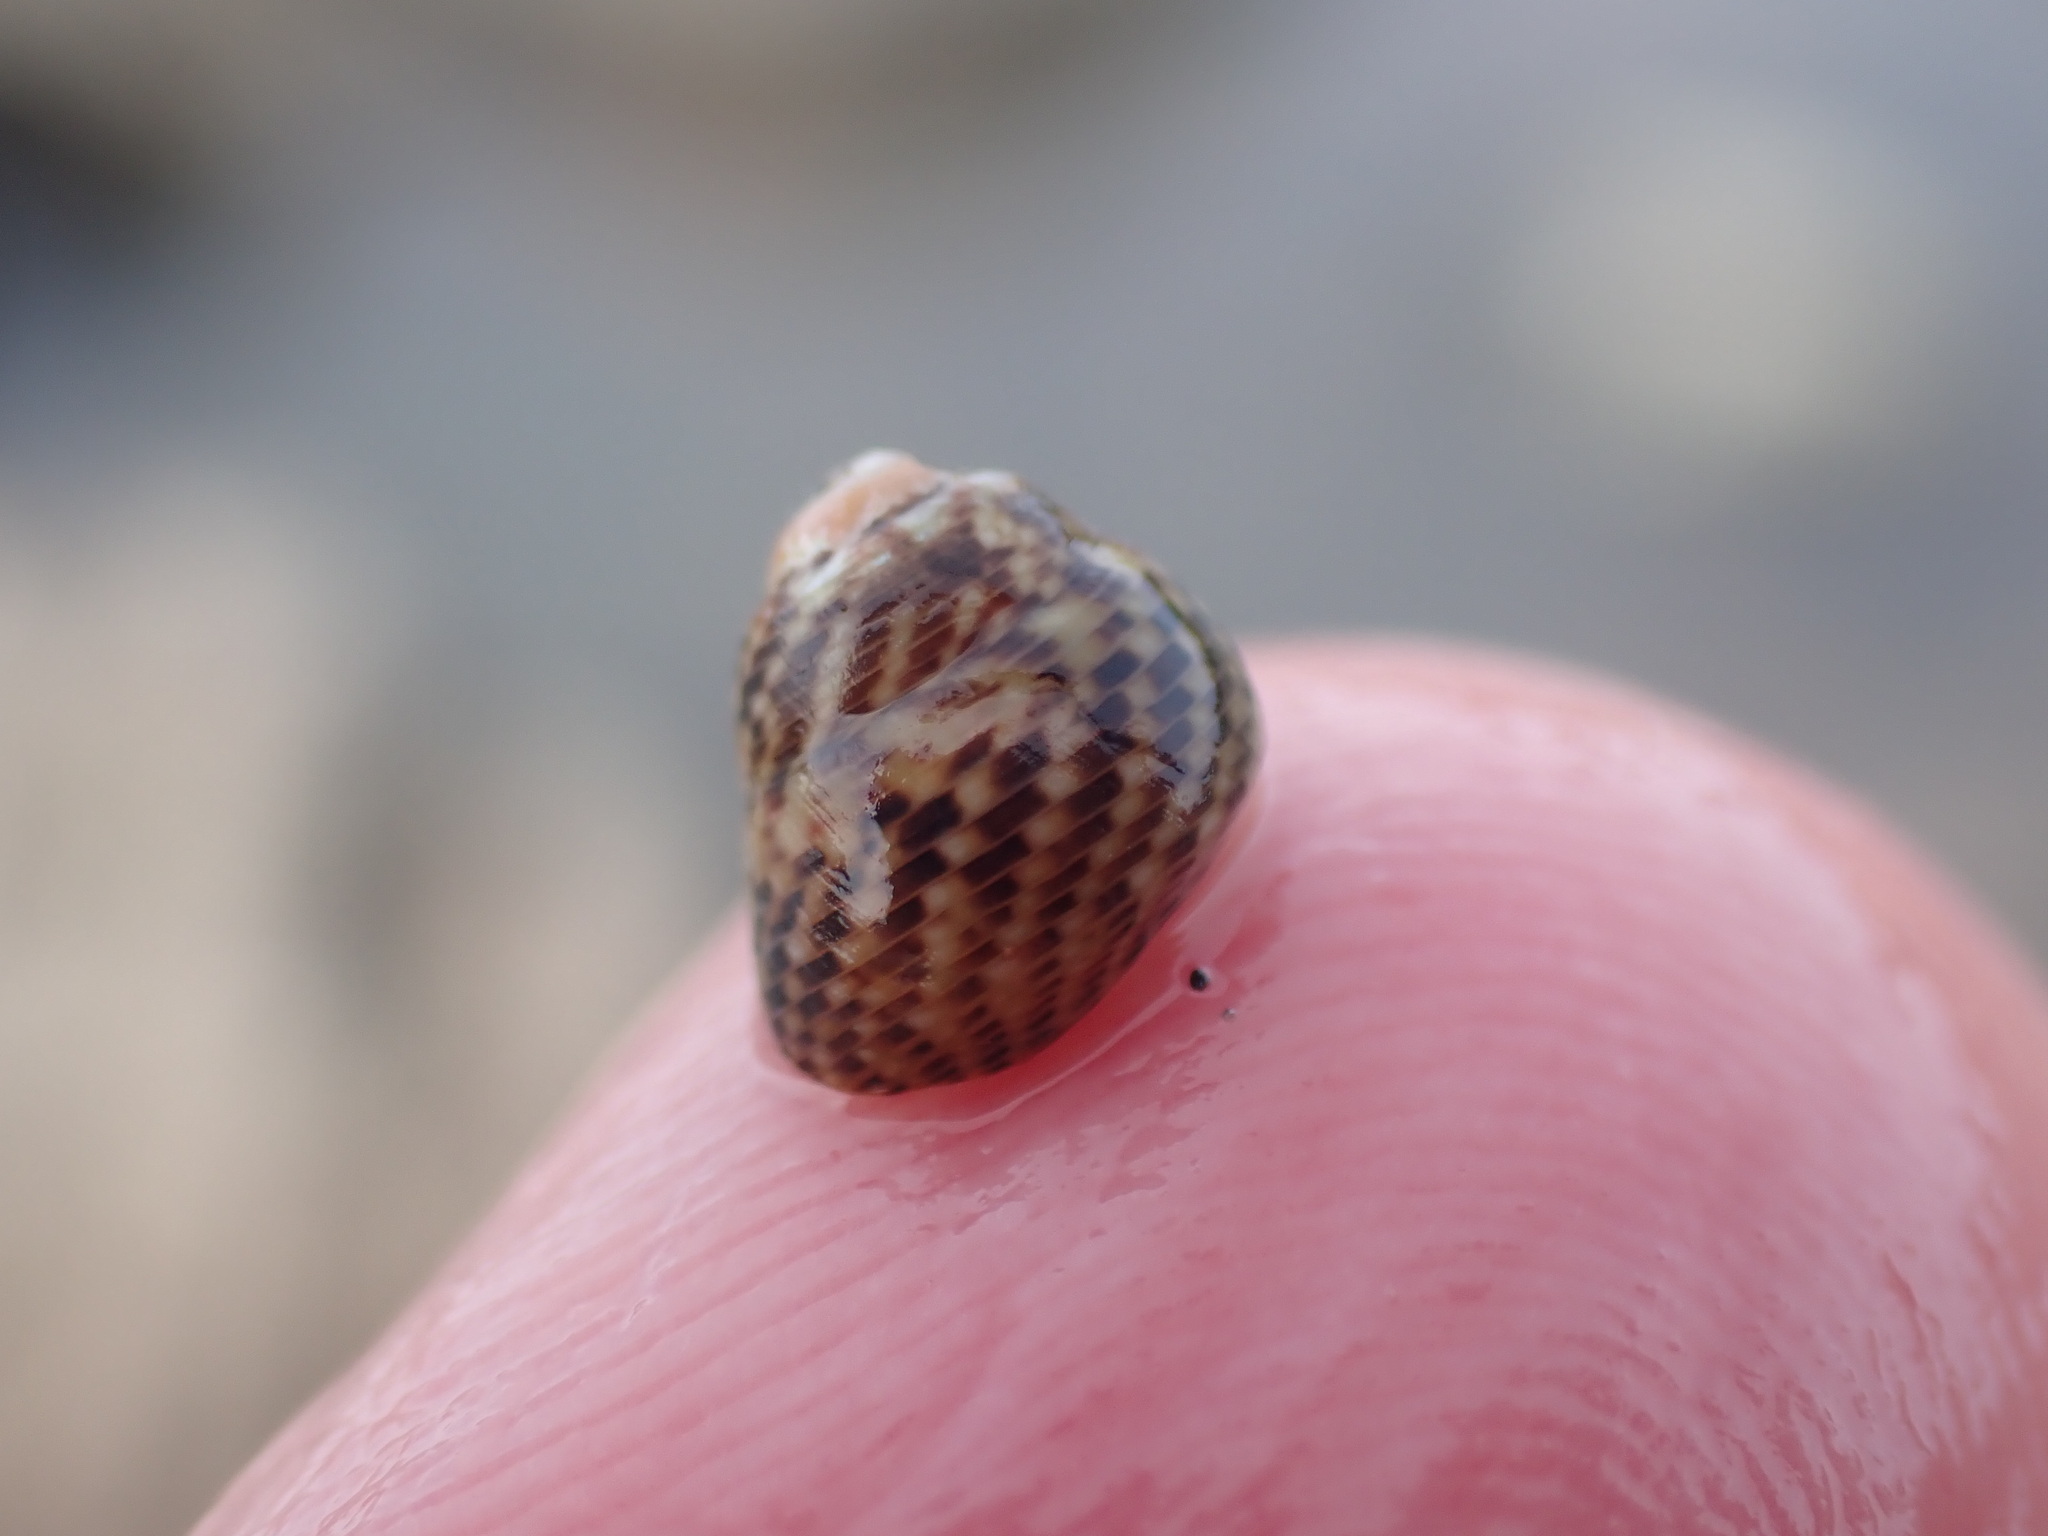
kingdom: Animalia
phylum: Mollusca
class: Gastropoda
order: Trochida
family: Trochidae
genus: Micrelenchus
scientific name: Micrelenchus tessellatus
